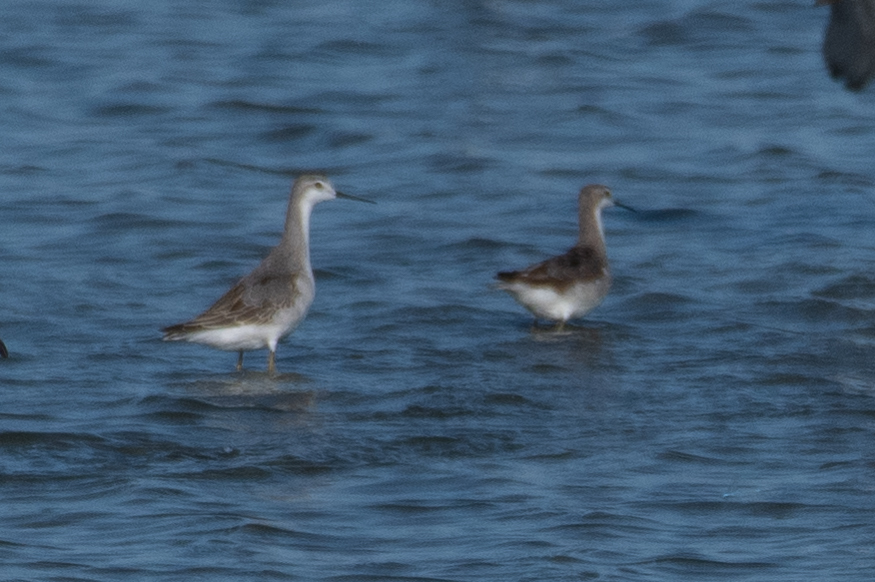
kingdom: Animalia
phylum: Chordata
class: Aves
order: Charadriiformes
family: Scolopacidae
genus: Phalaropus
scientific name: Phalaropus tricolor
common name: Wilson's phalarope
